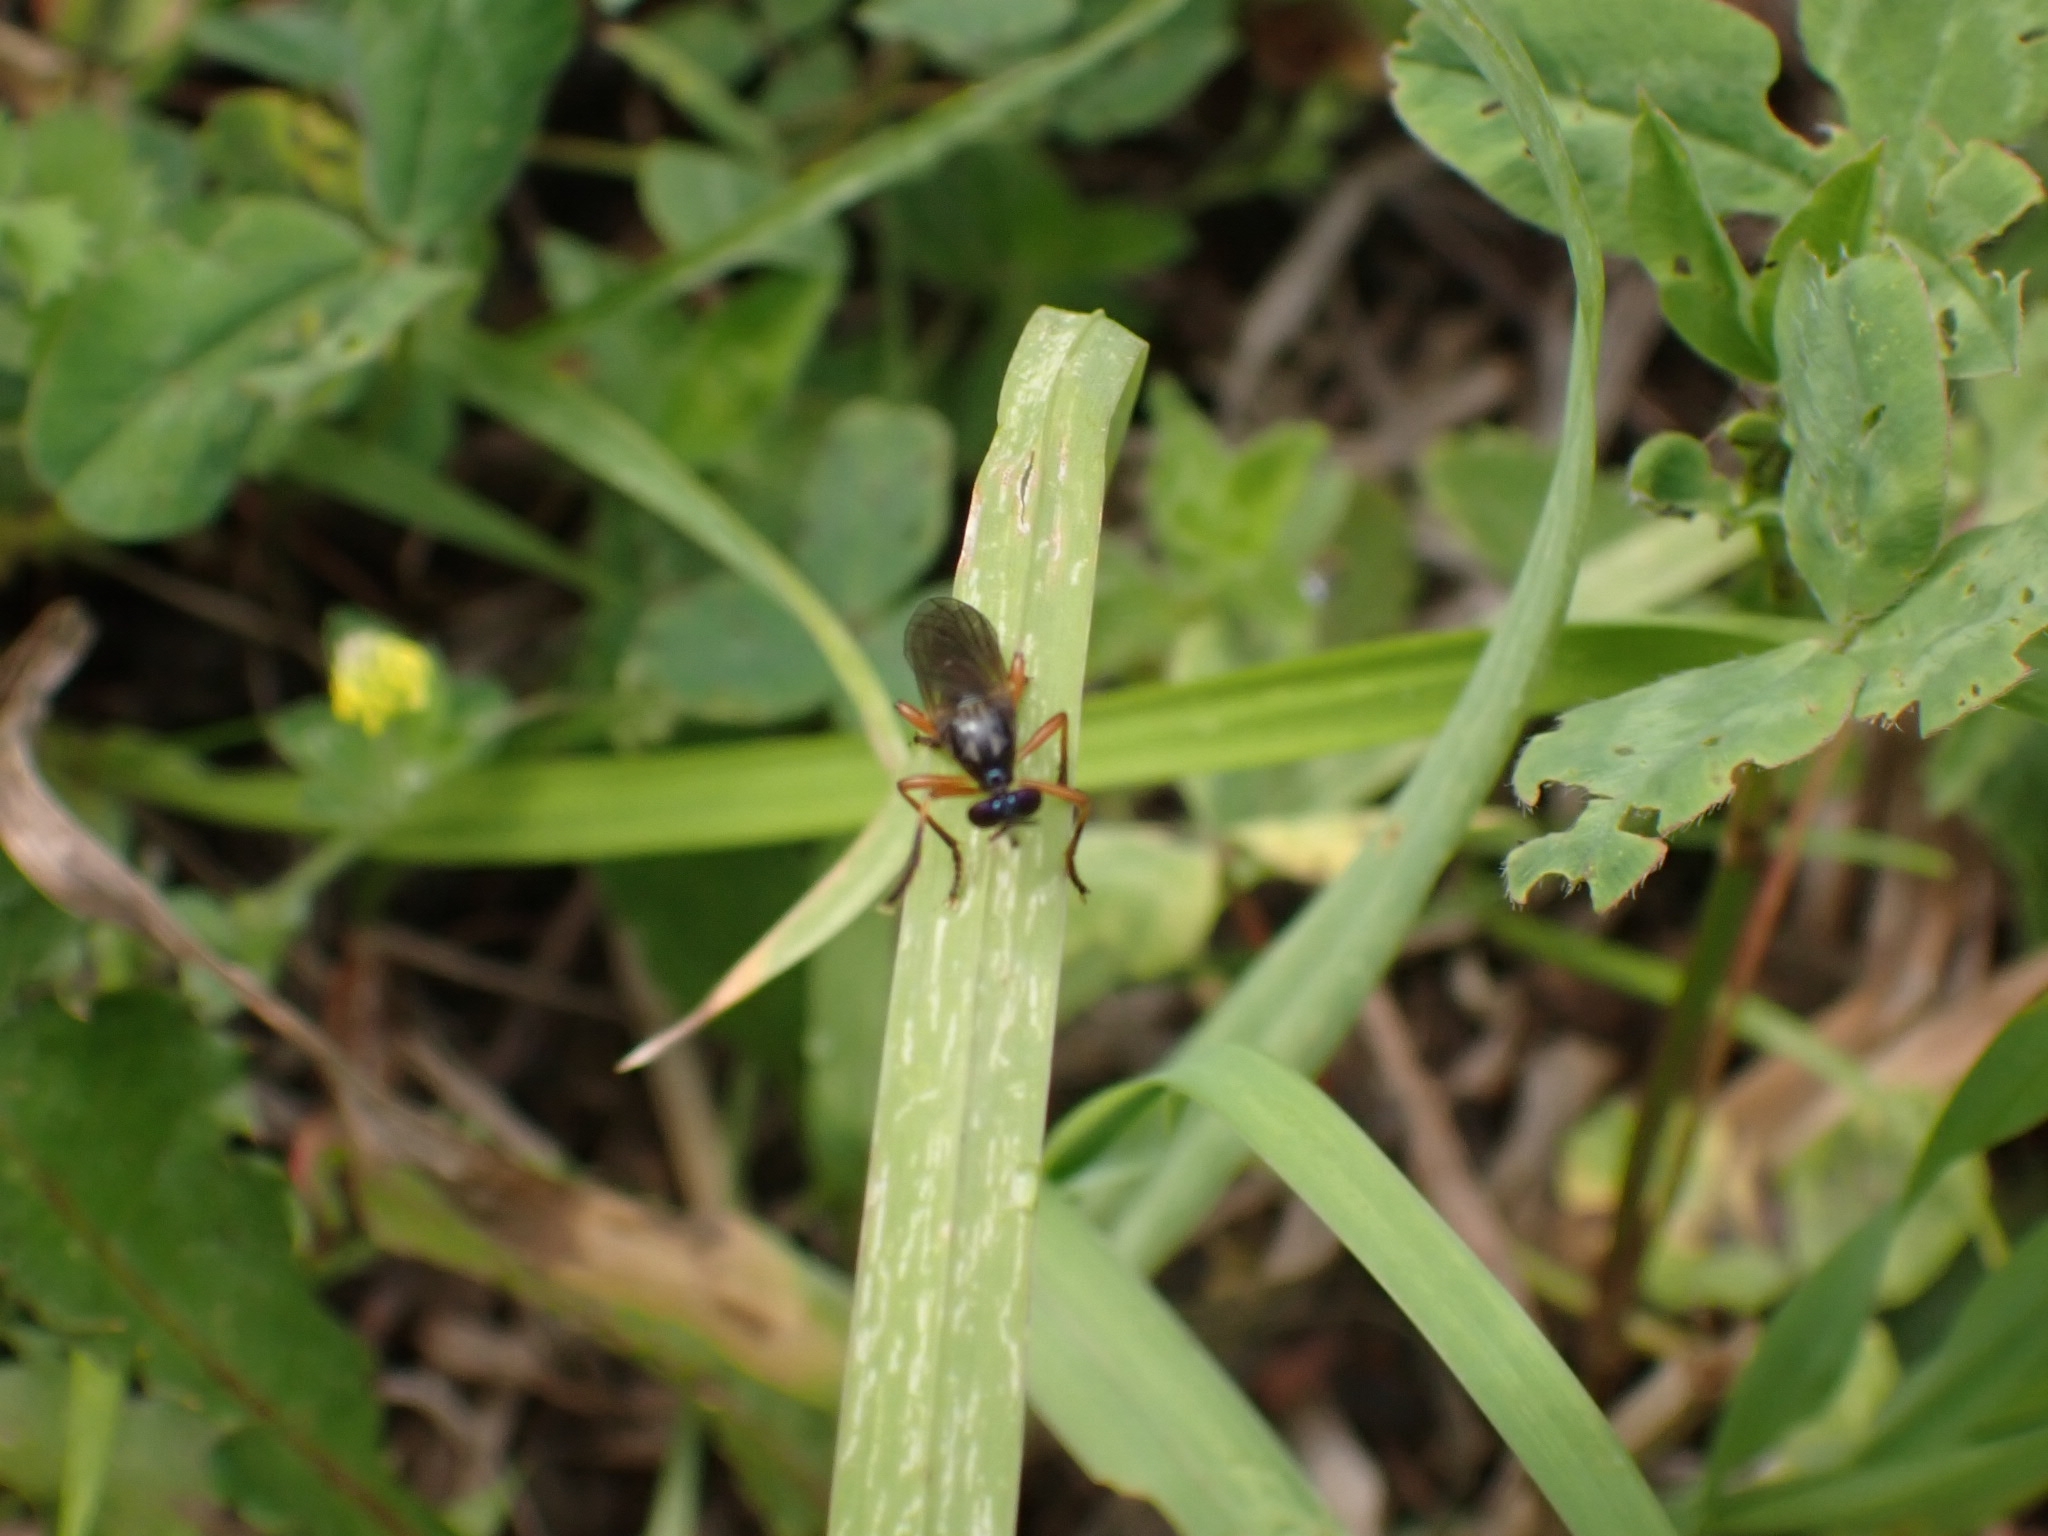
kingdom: Animalia
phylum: Arthropoda
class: Insecta
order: Diptera
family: Asilidae
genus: Dioctria
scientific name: Dioctria cothurnata
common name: Scarce red-legged robberfly
